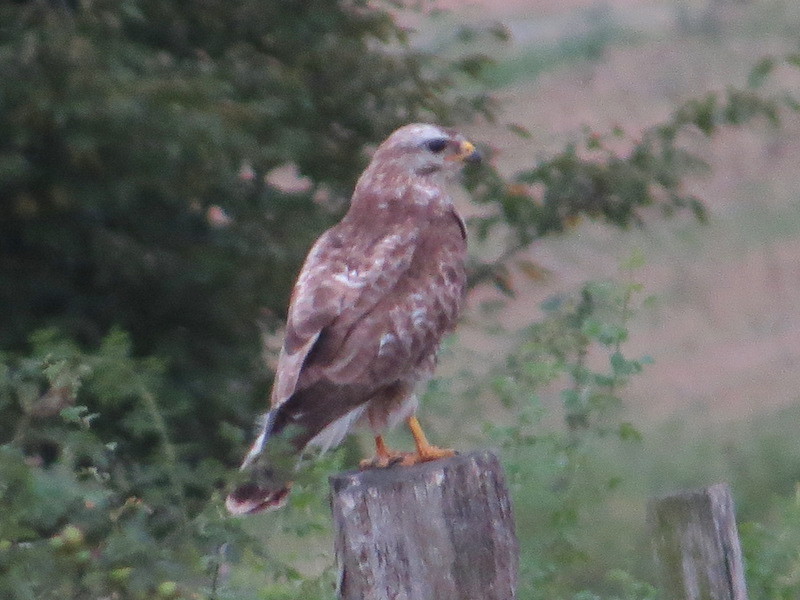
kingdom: Animalia
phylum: Chordata
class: Aves
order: Accipitriformes
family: Accipitridae
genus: Buteo
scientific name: Buteo buteo
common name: Common buzzard
